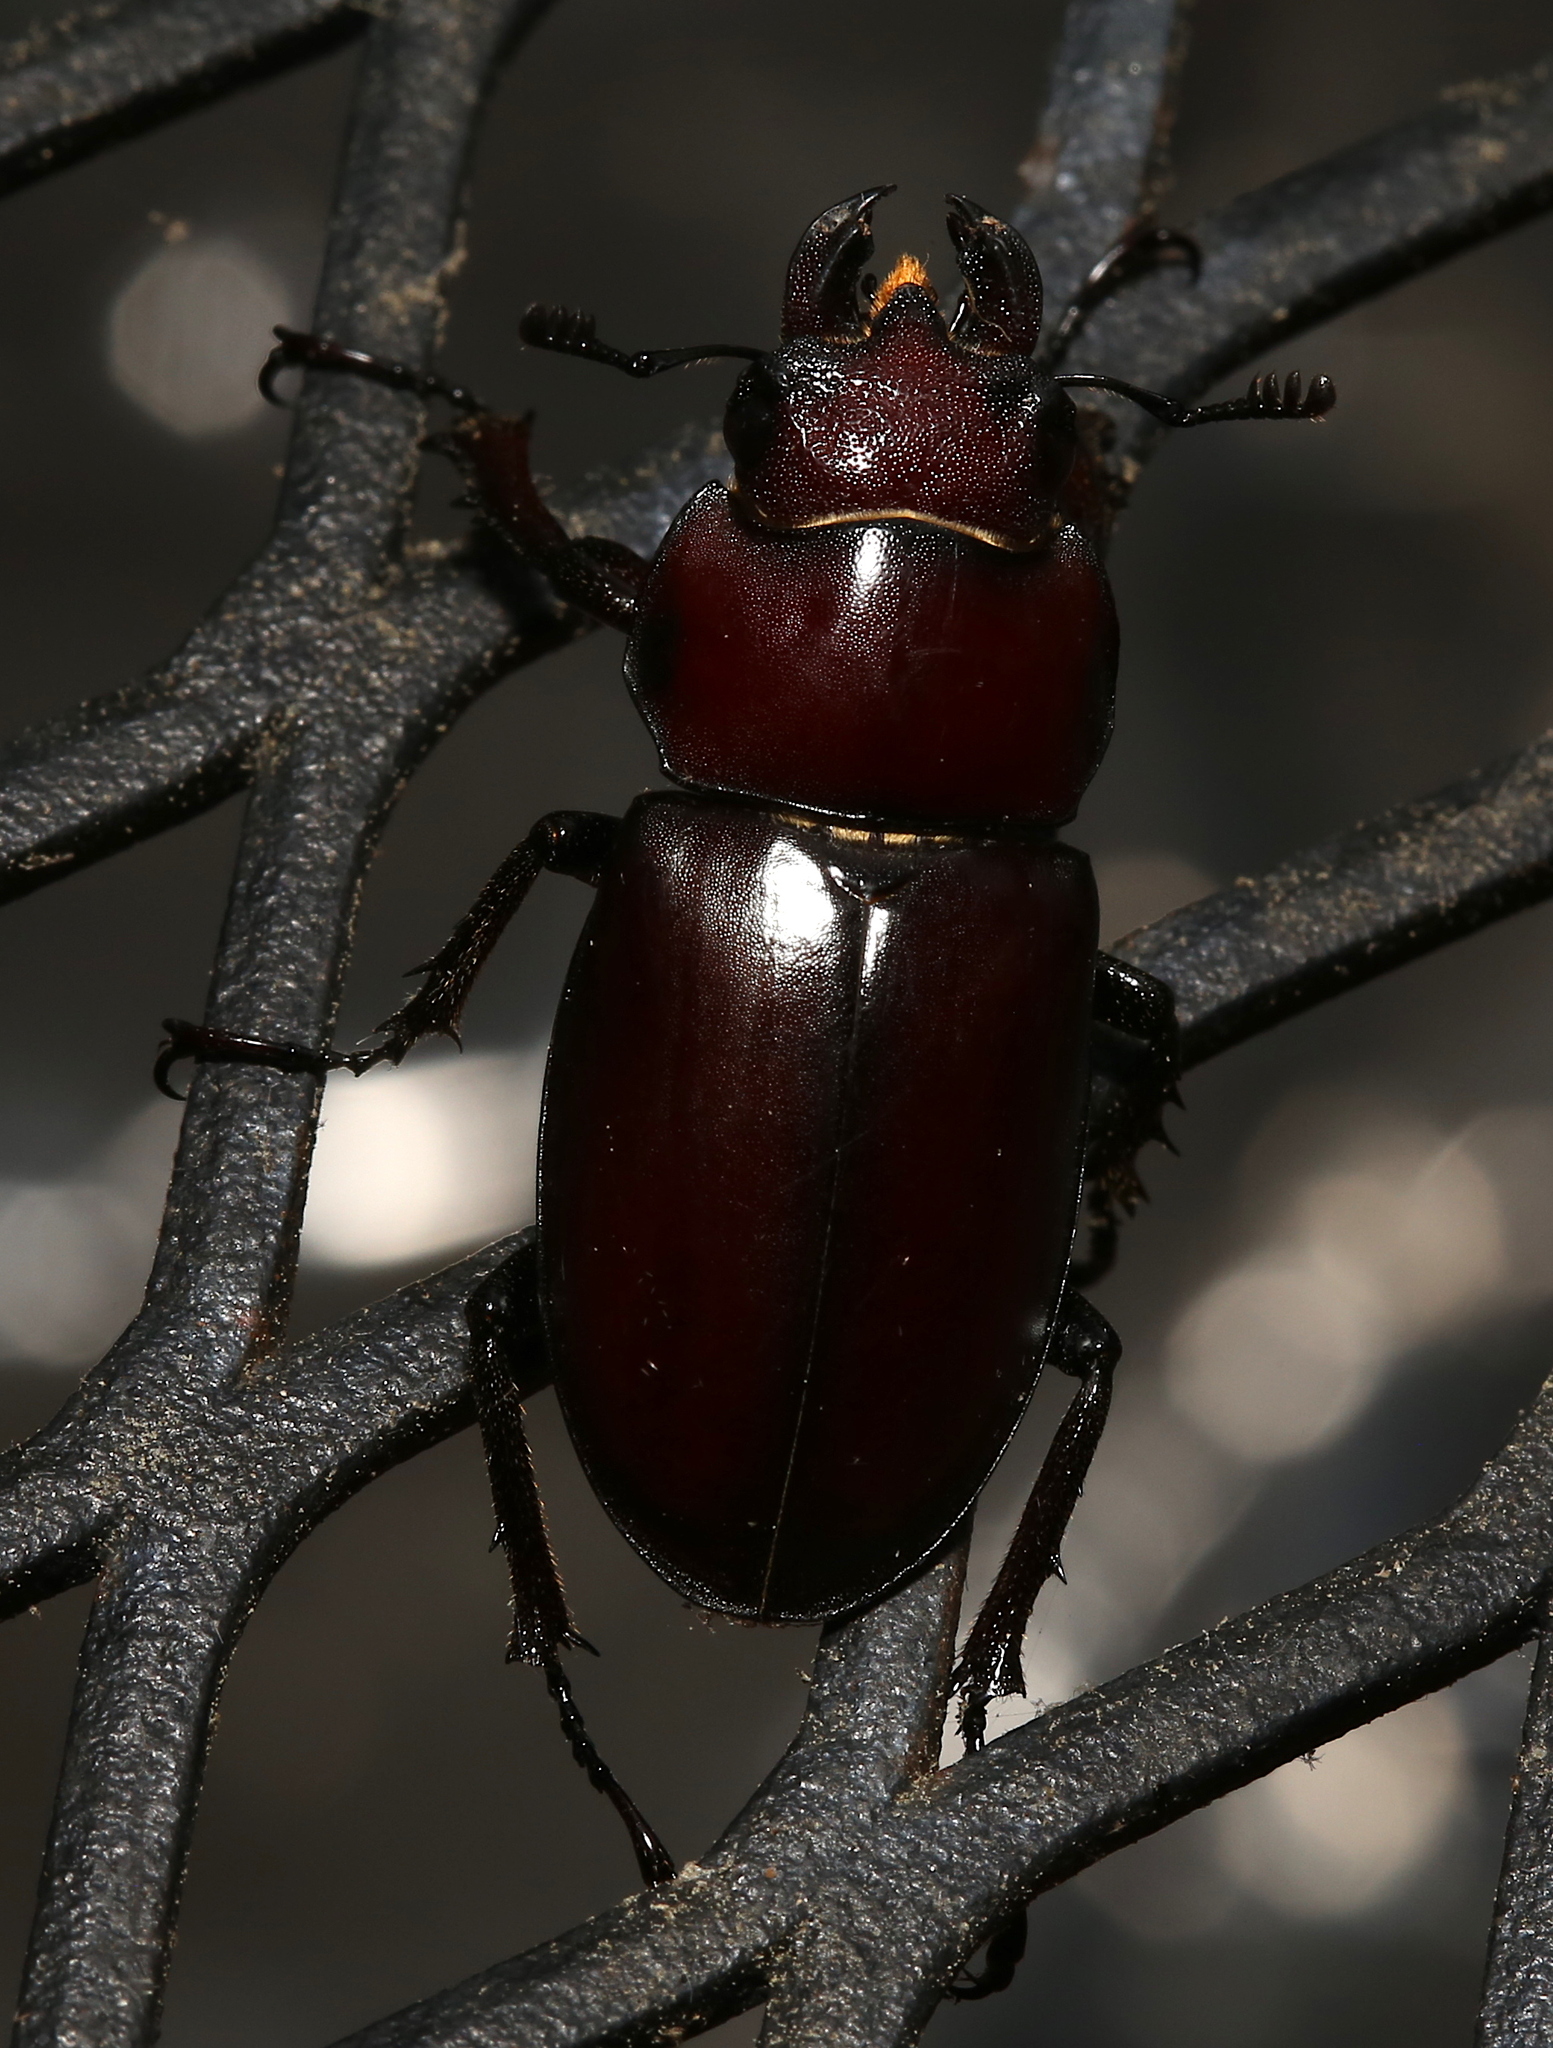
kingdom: Animalia
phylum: Arthropoda
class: Insecta
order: Coleoptera
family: Lucanidae
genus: Lucanus
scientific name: Lucanus elaphus
